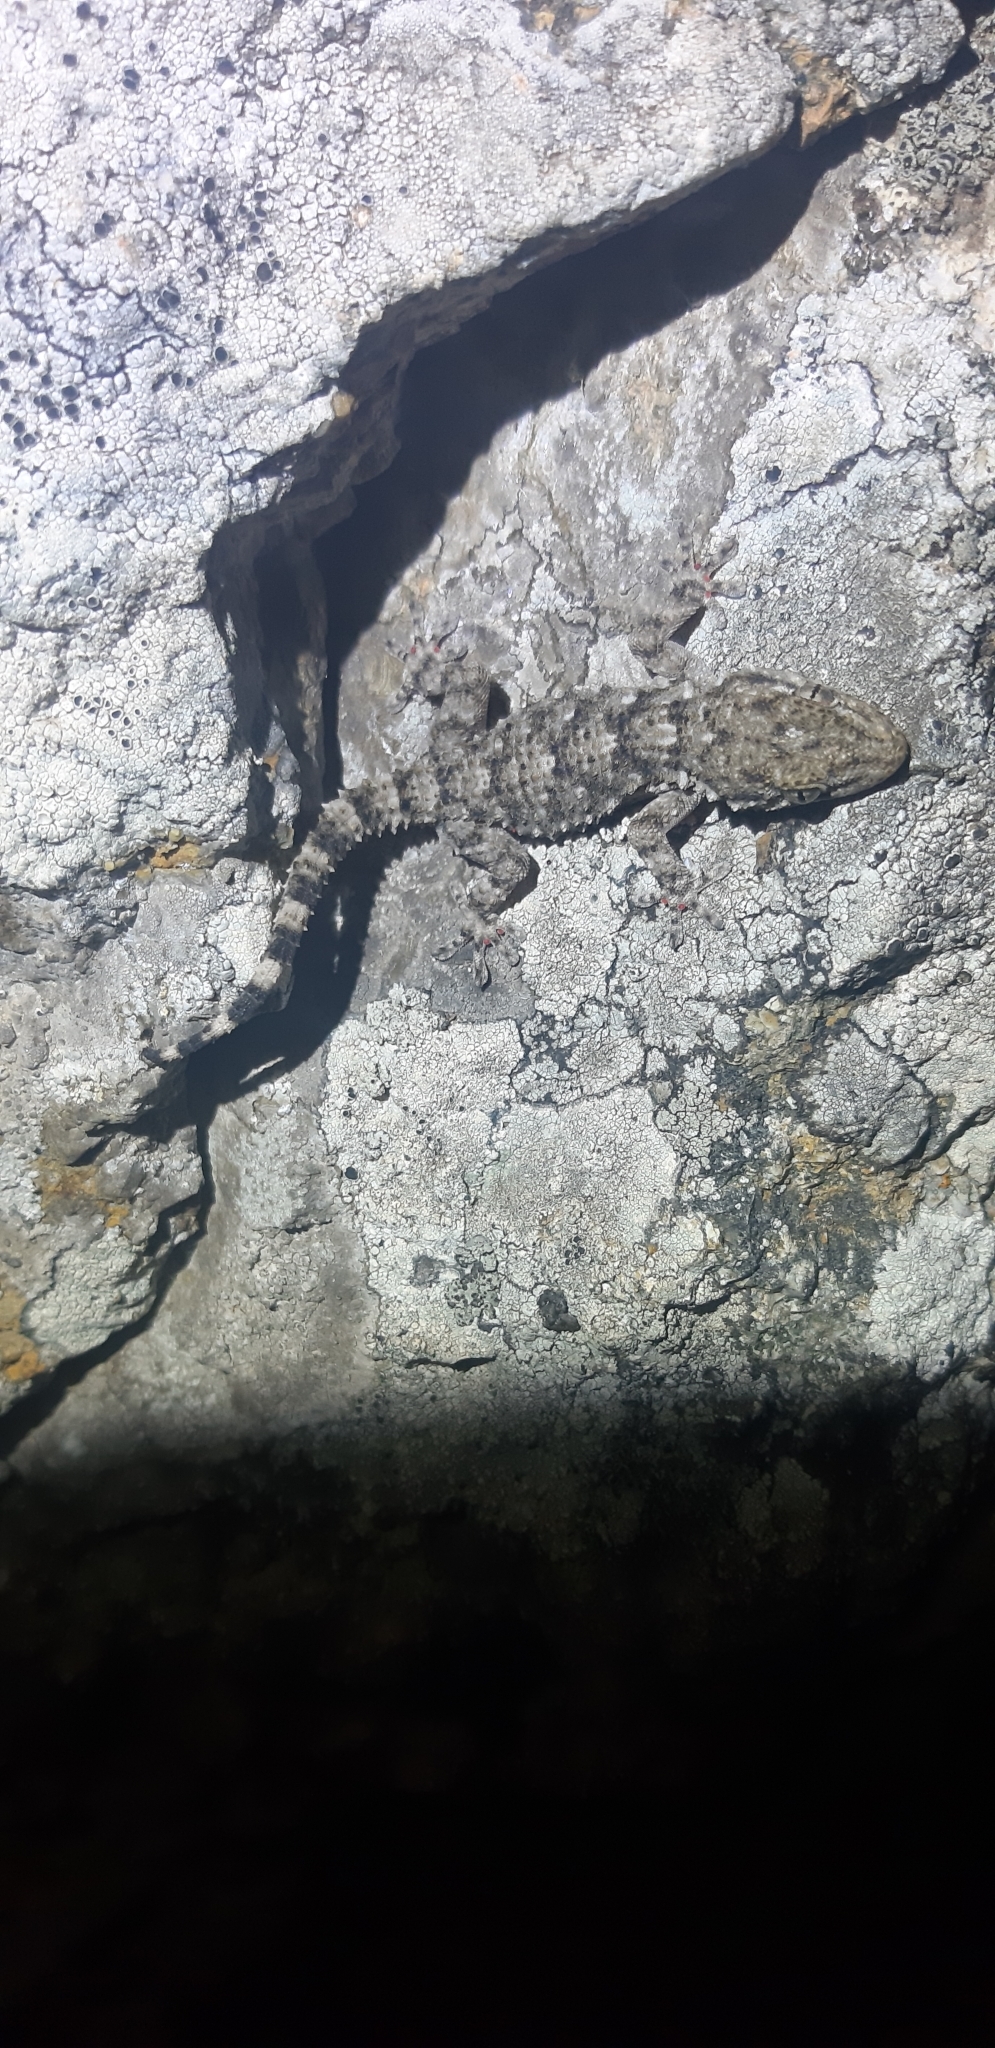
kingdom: Animalia
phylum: Chordata
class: Squamata
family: Phyllodactylidae
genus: Tarentola
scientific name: Tarentola mauritanica
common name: Moorish gecko
